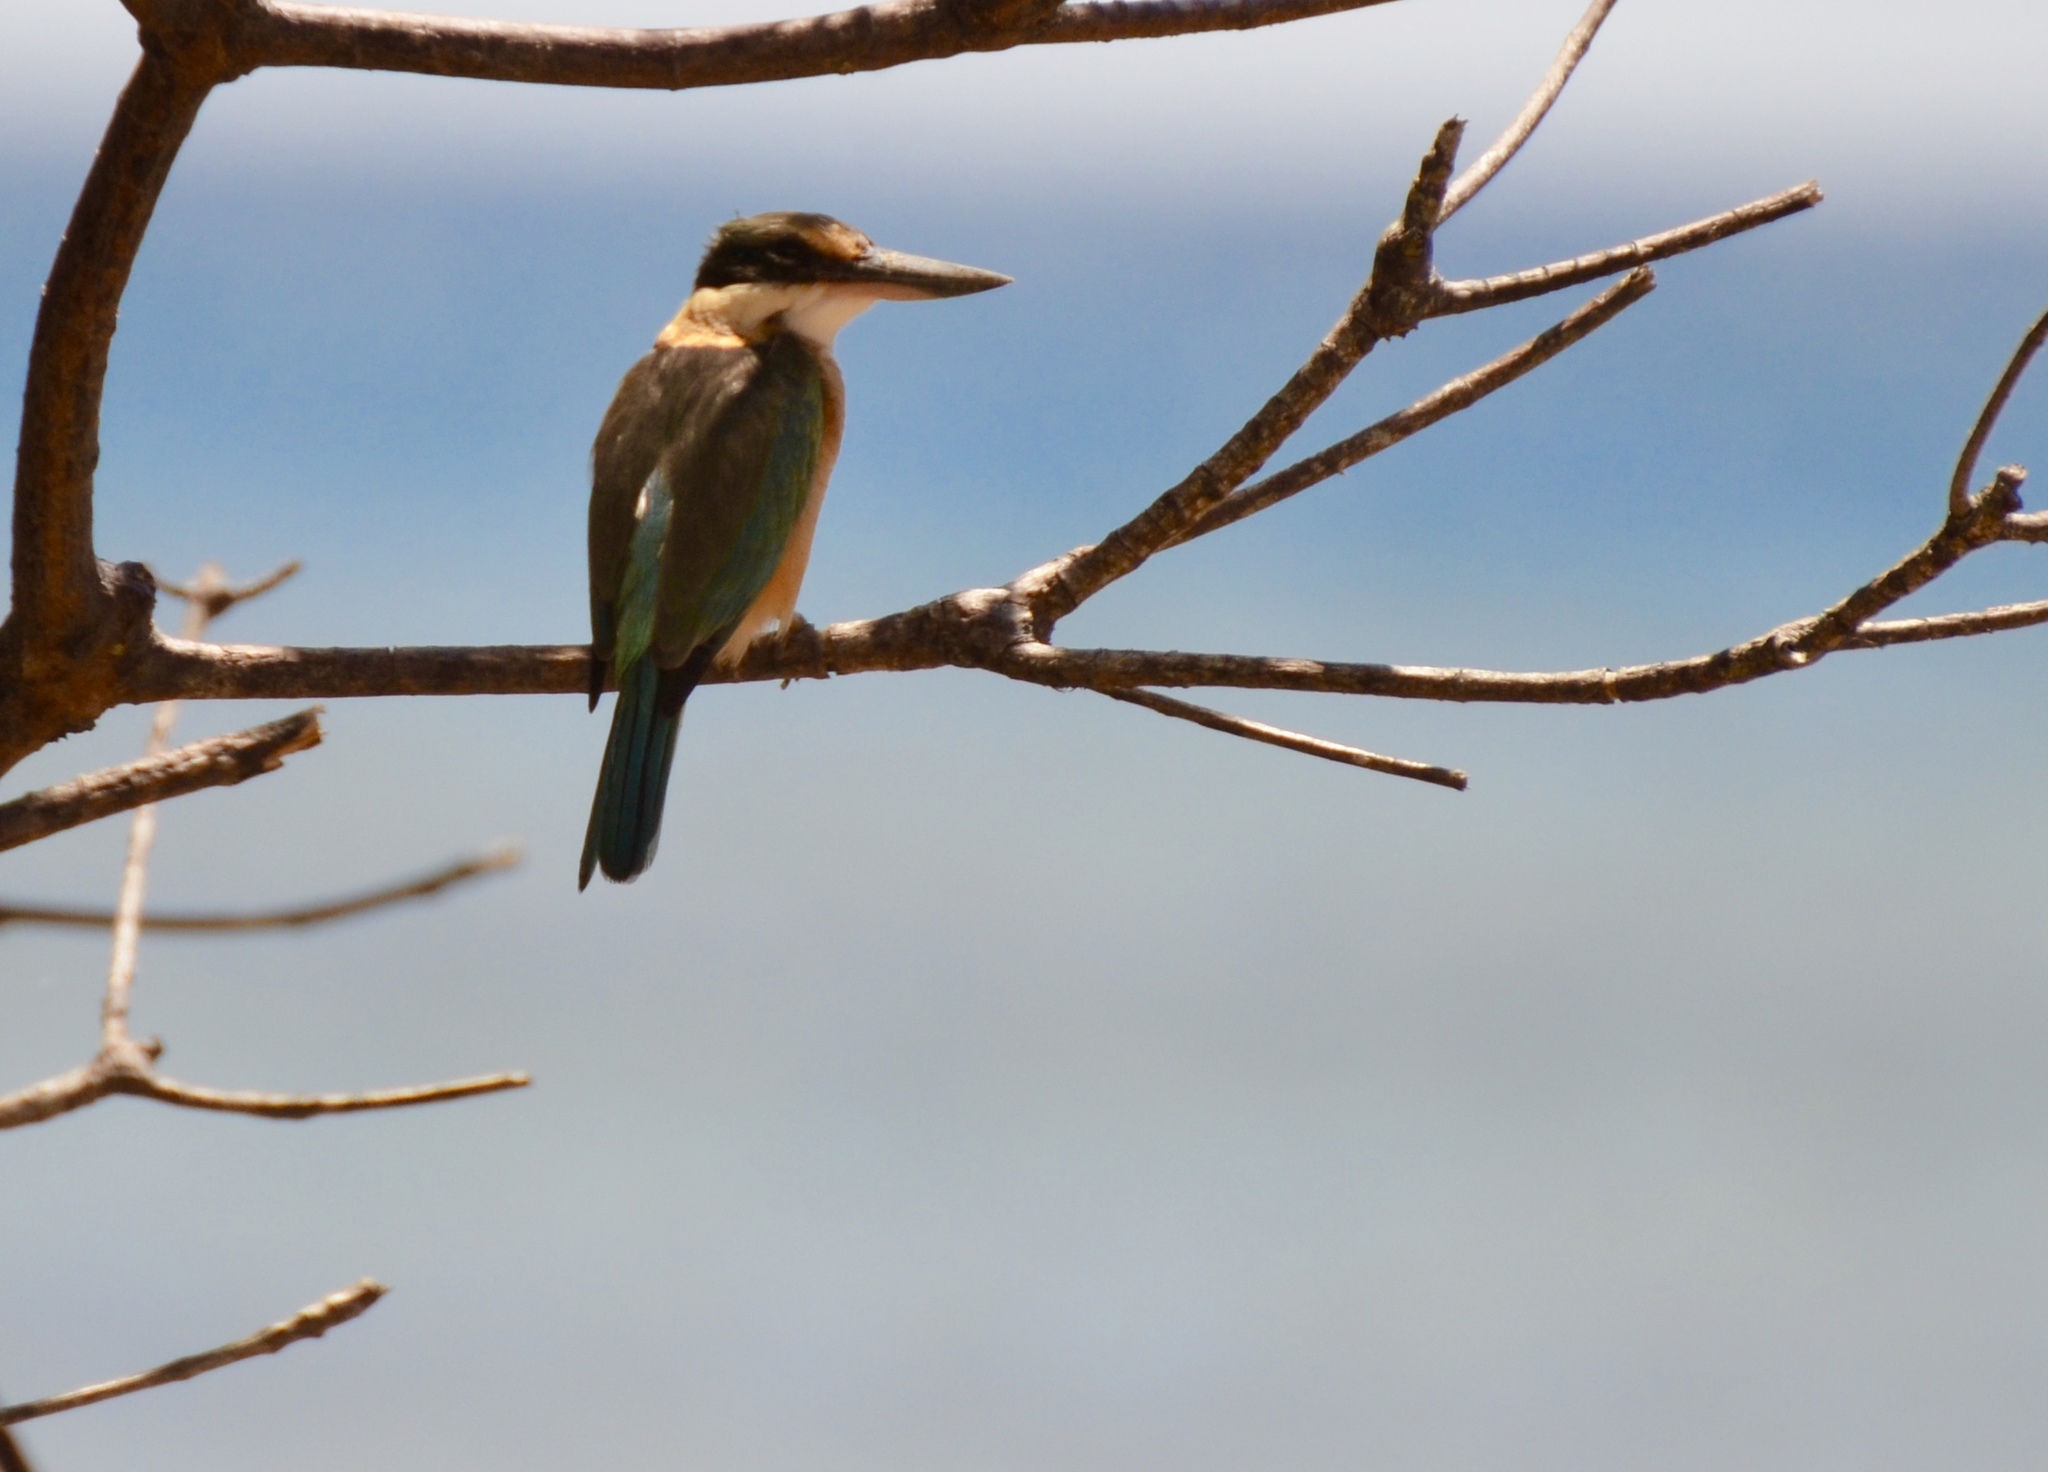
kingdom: Animalia
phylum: Chordata
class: Aves
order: Coraciiformes
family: Alcedinidae
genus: Todiramphus
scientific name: Todiramphus sanctus
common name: Sacred kingfisher
